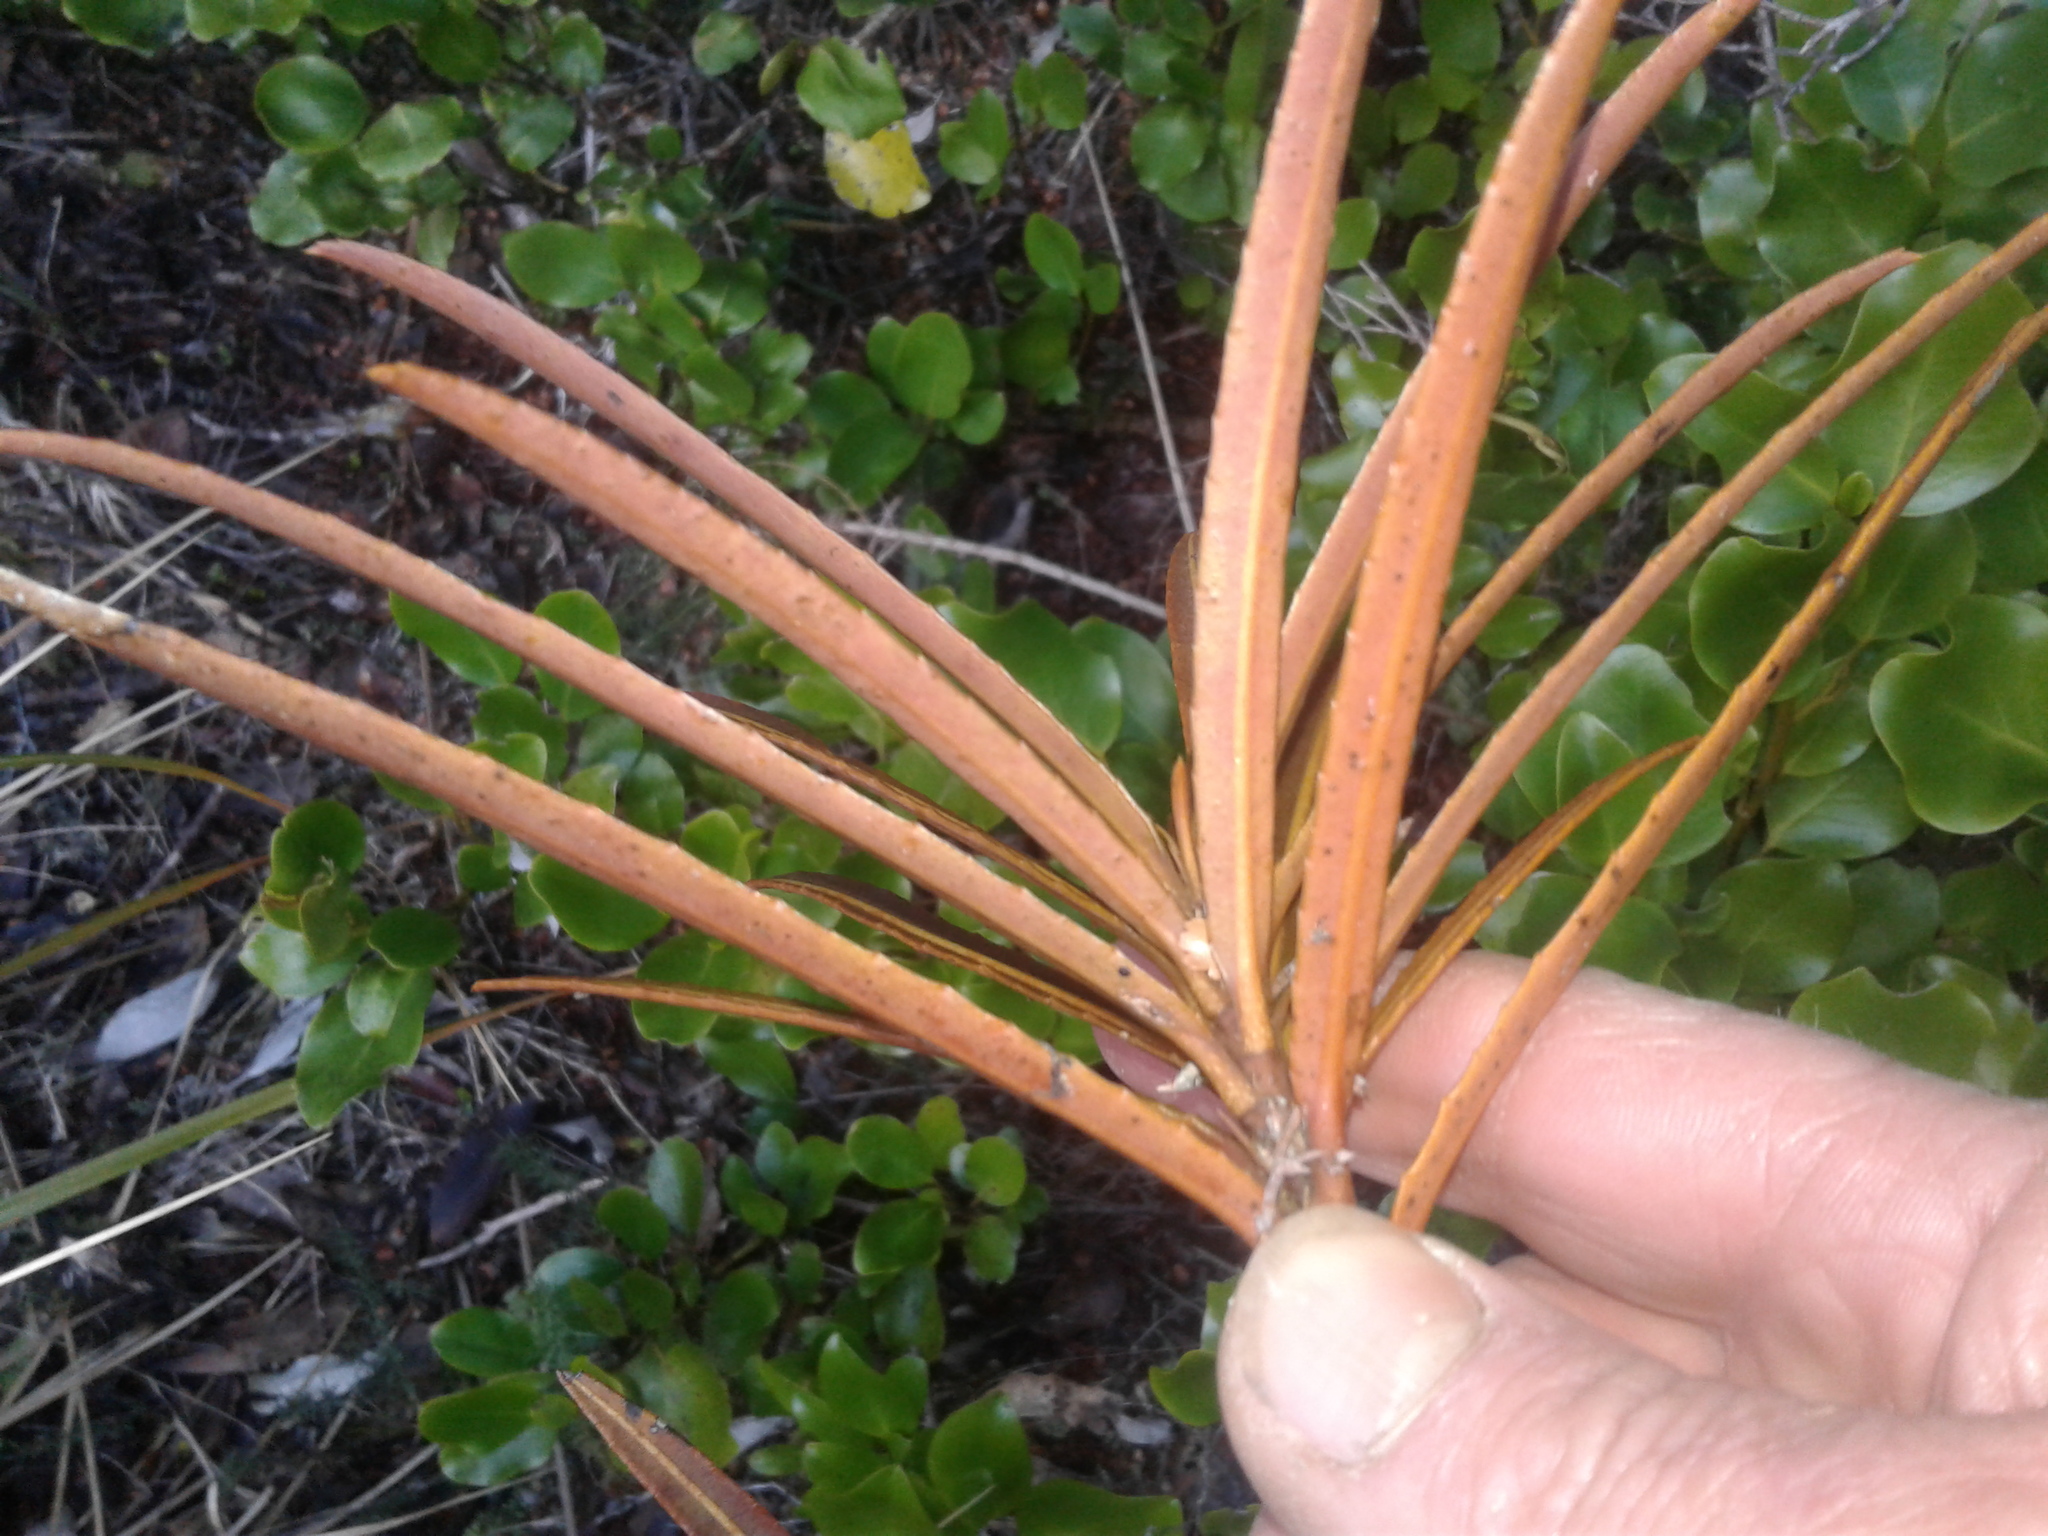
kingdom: Plantae
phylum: Tracheophyta
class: Magnoliopsida
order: Apiales
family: Araliaceae
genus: Pseudopanax
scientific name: Pseudopanax linearis
